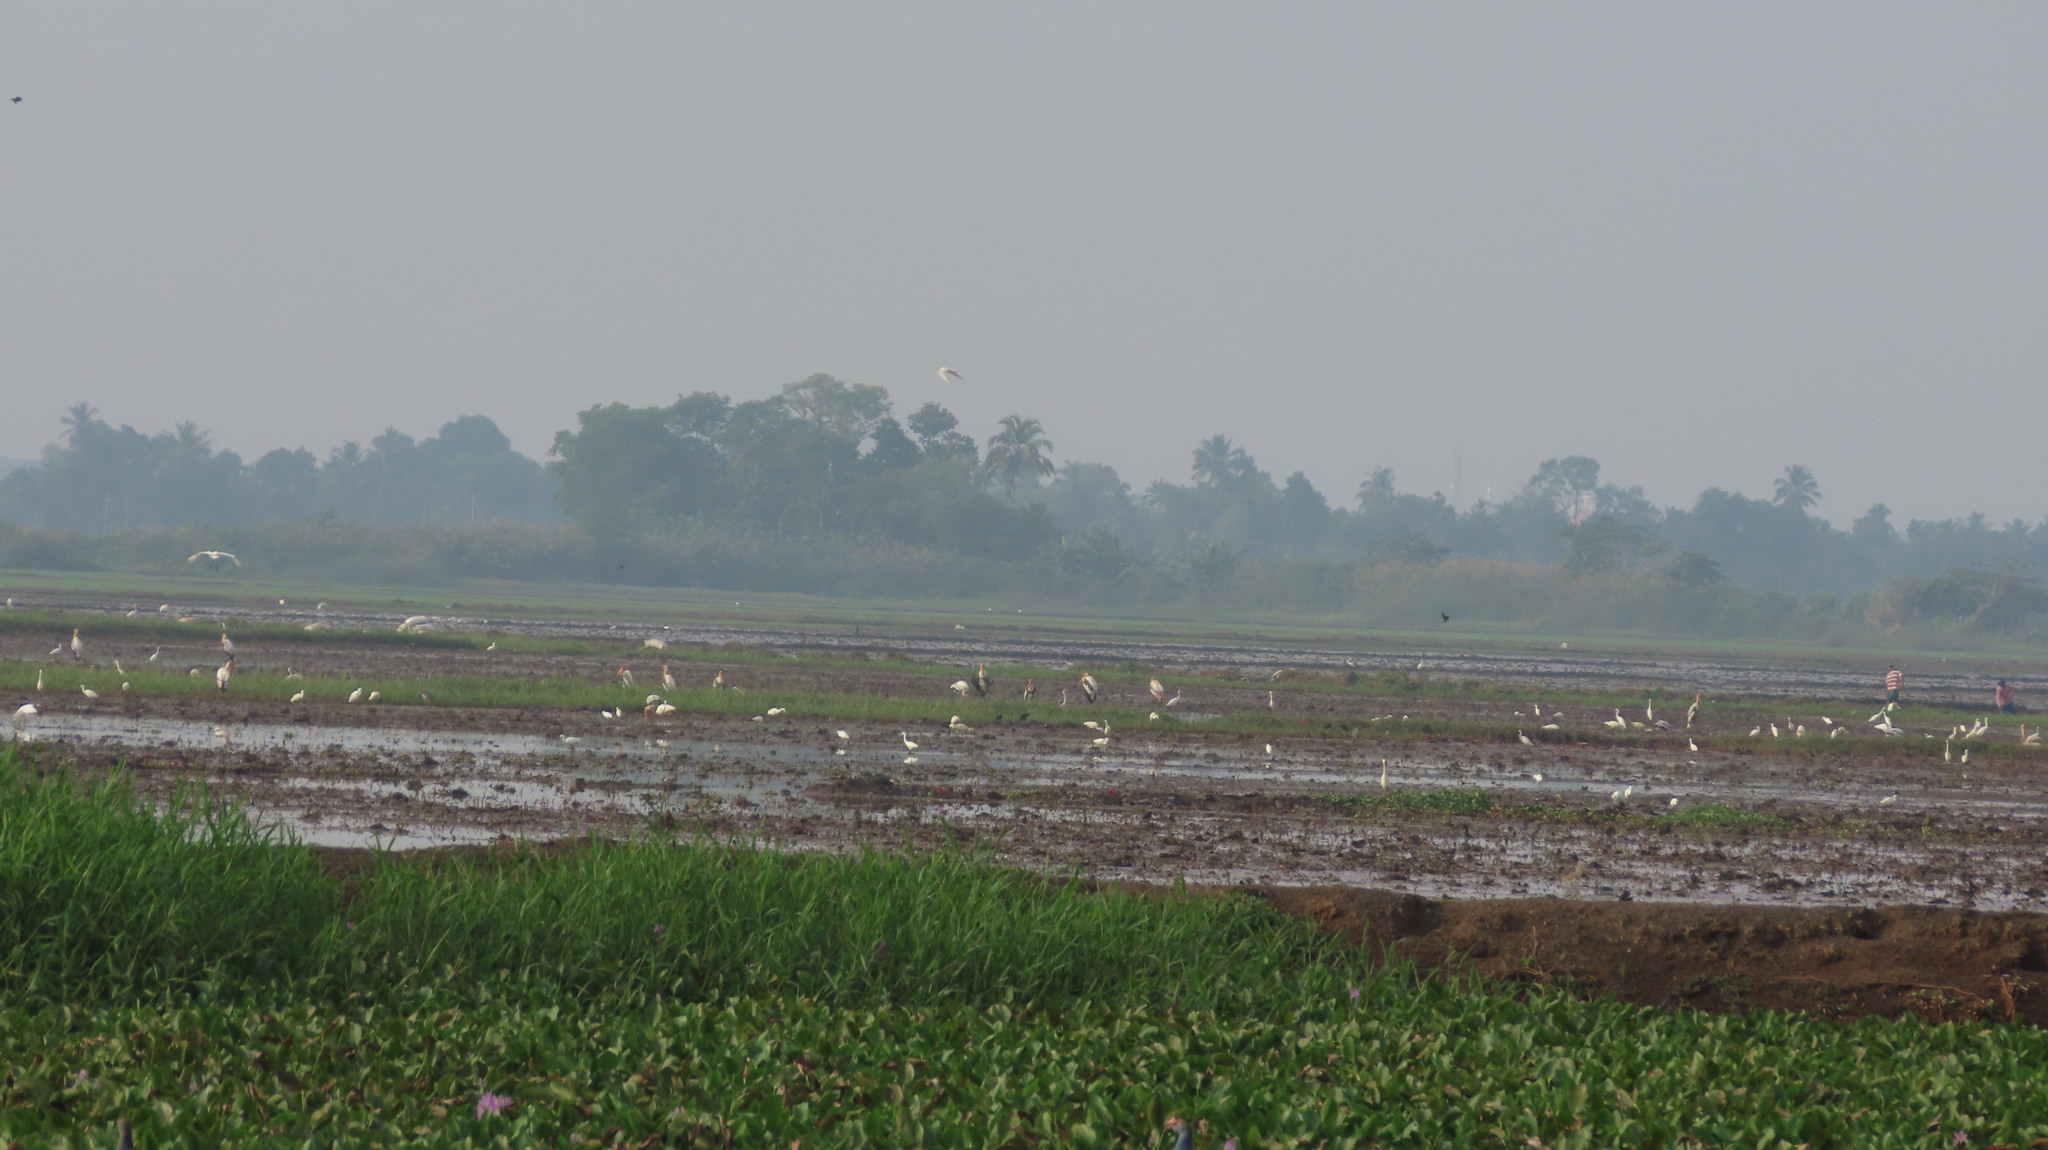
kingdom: Animalia
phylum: Chordata
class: Aves
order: Ciconiiformes
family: Ciconiidae
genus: Mycteria
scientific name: Mycteria leucocephala
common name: Painted stork
